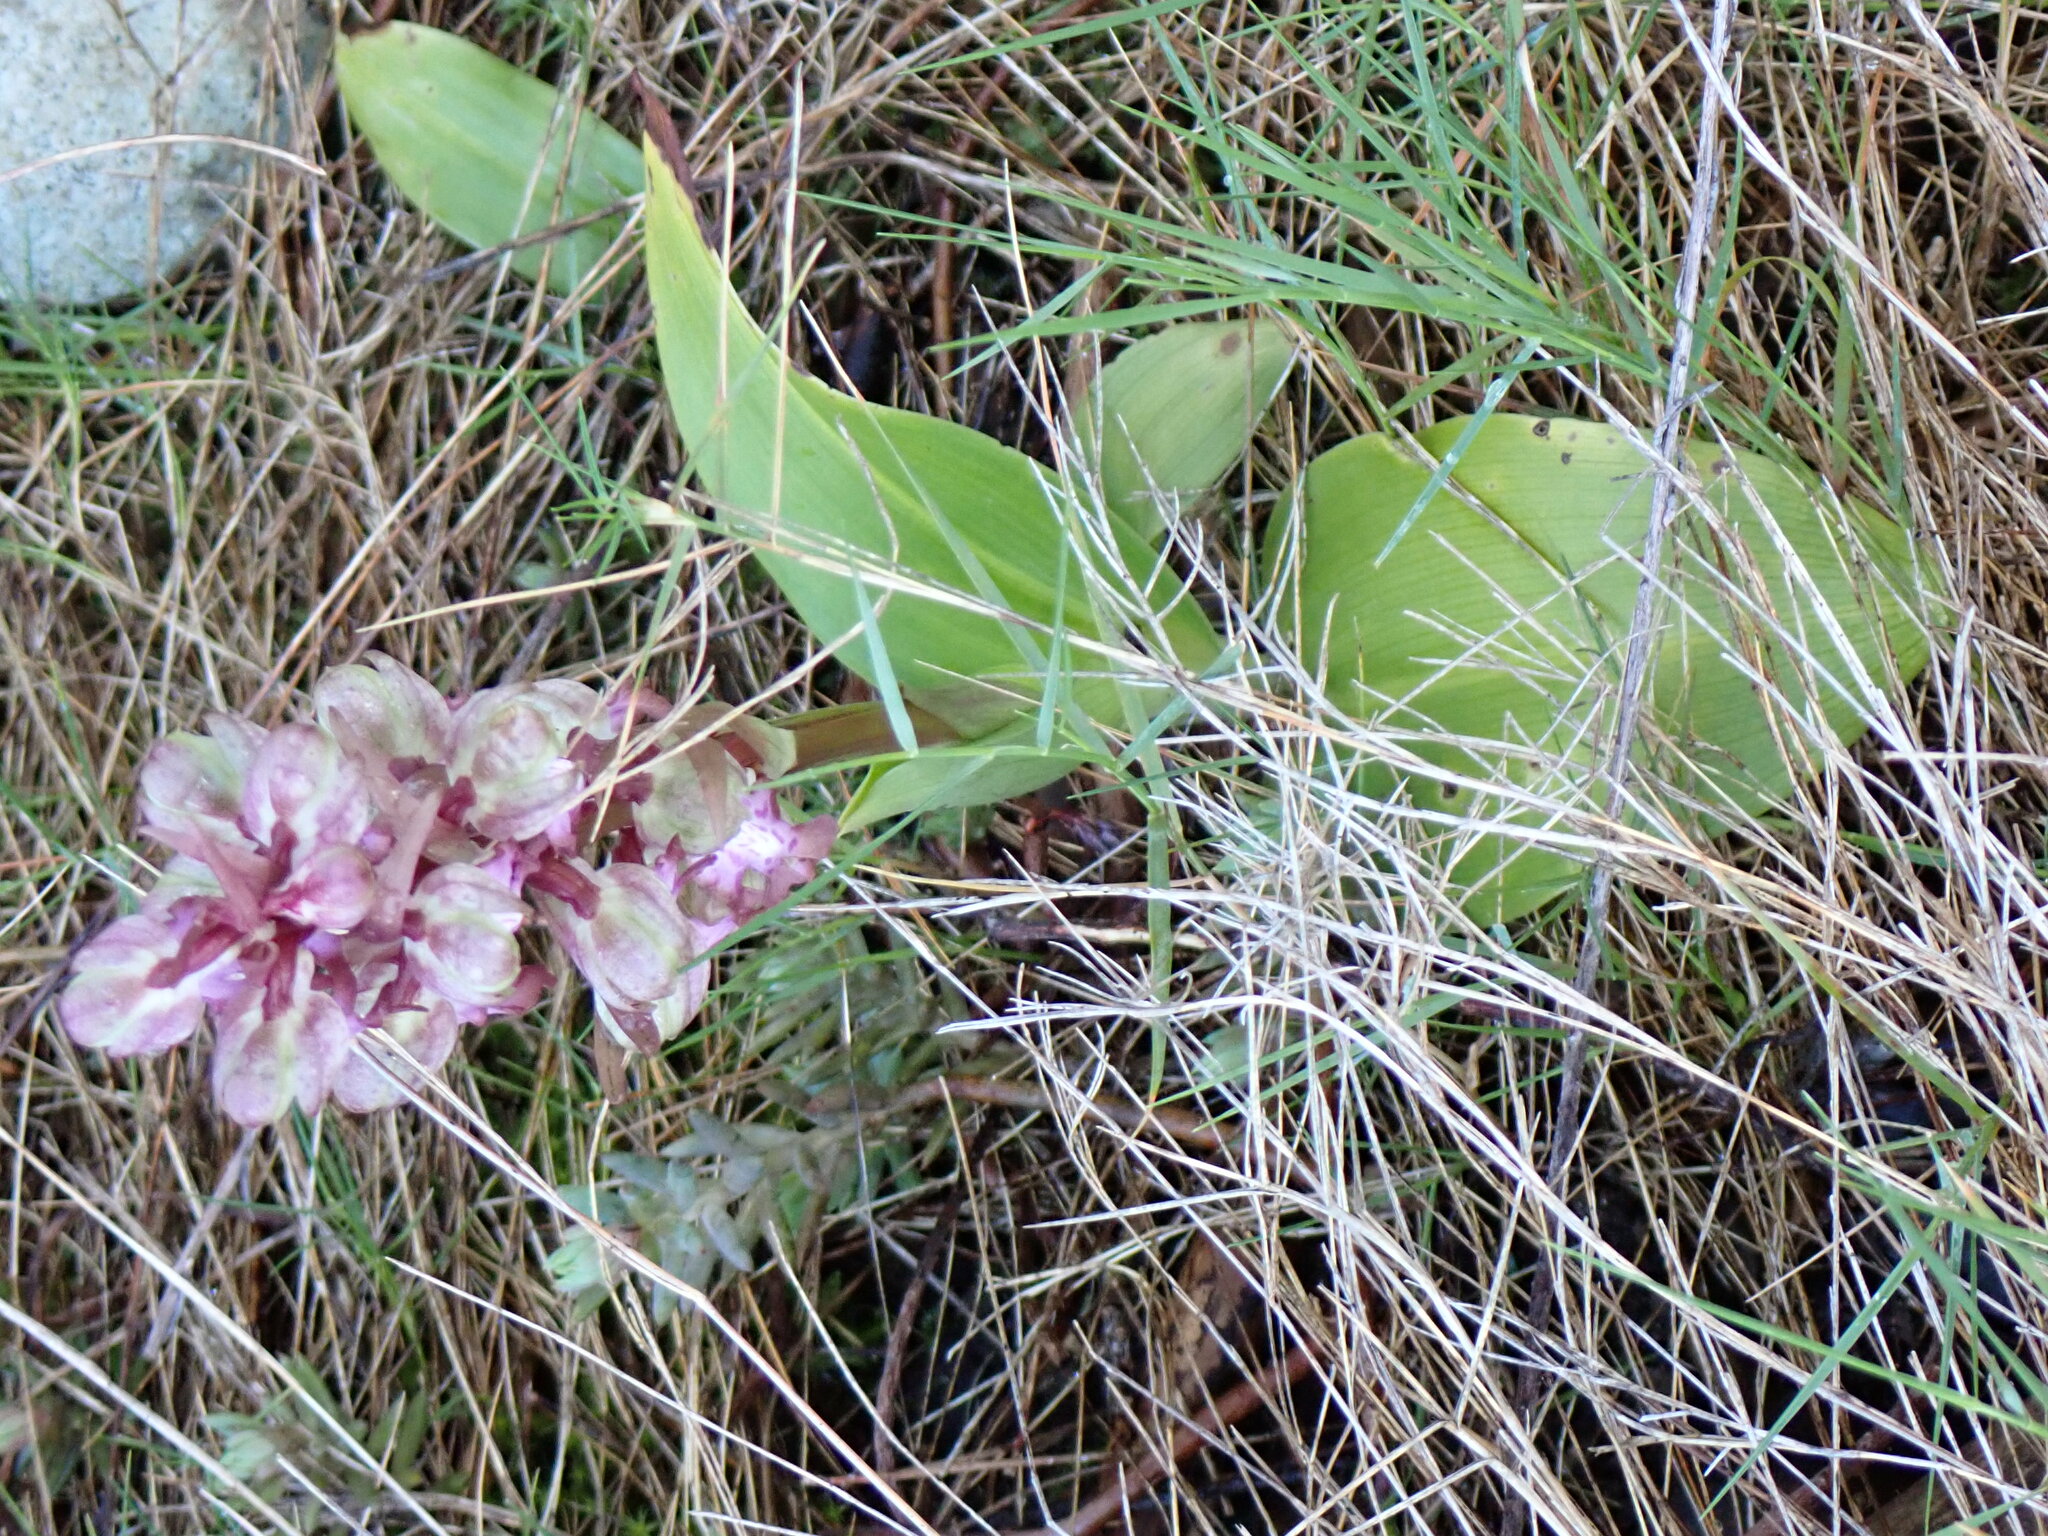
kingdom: Plantae
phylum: Tracheophyta
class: Liliopsida
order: Asparagales
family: Orchidaceae
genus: Himantoglossum
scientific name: Himantoglossum robertianum
